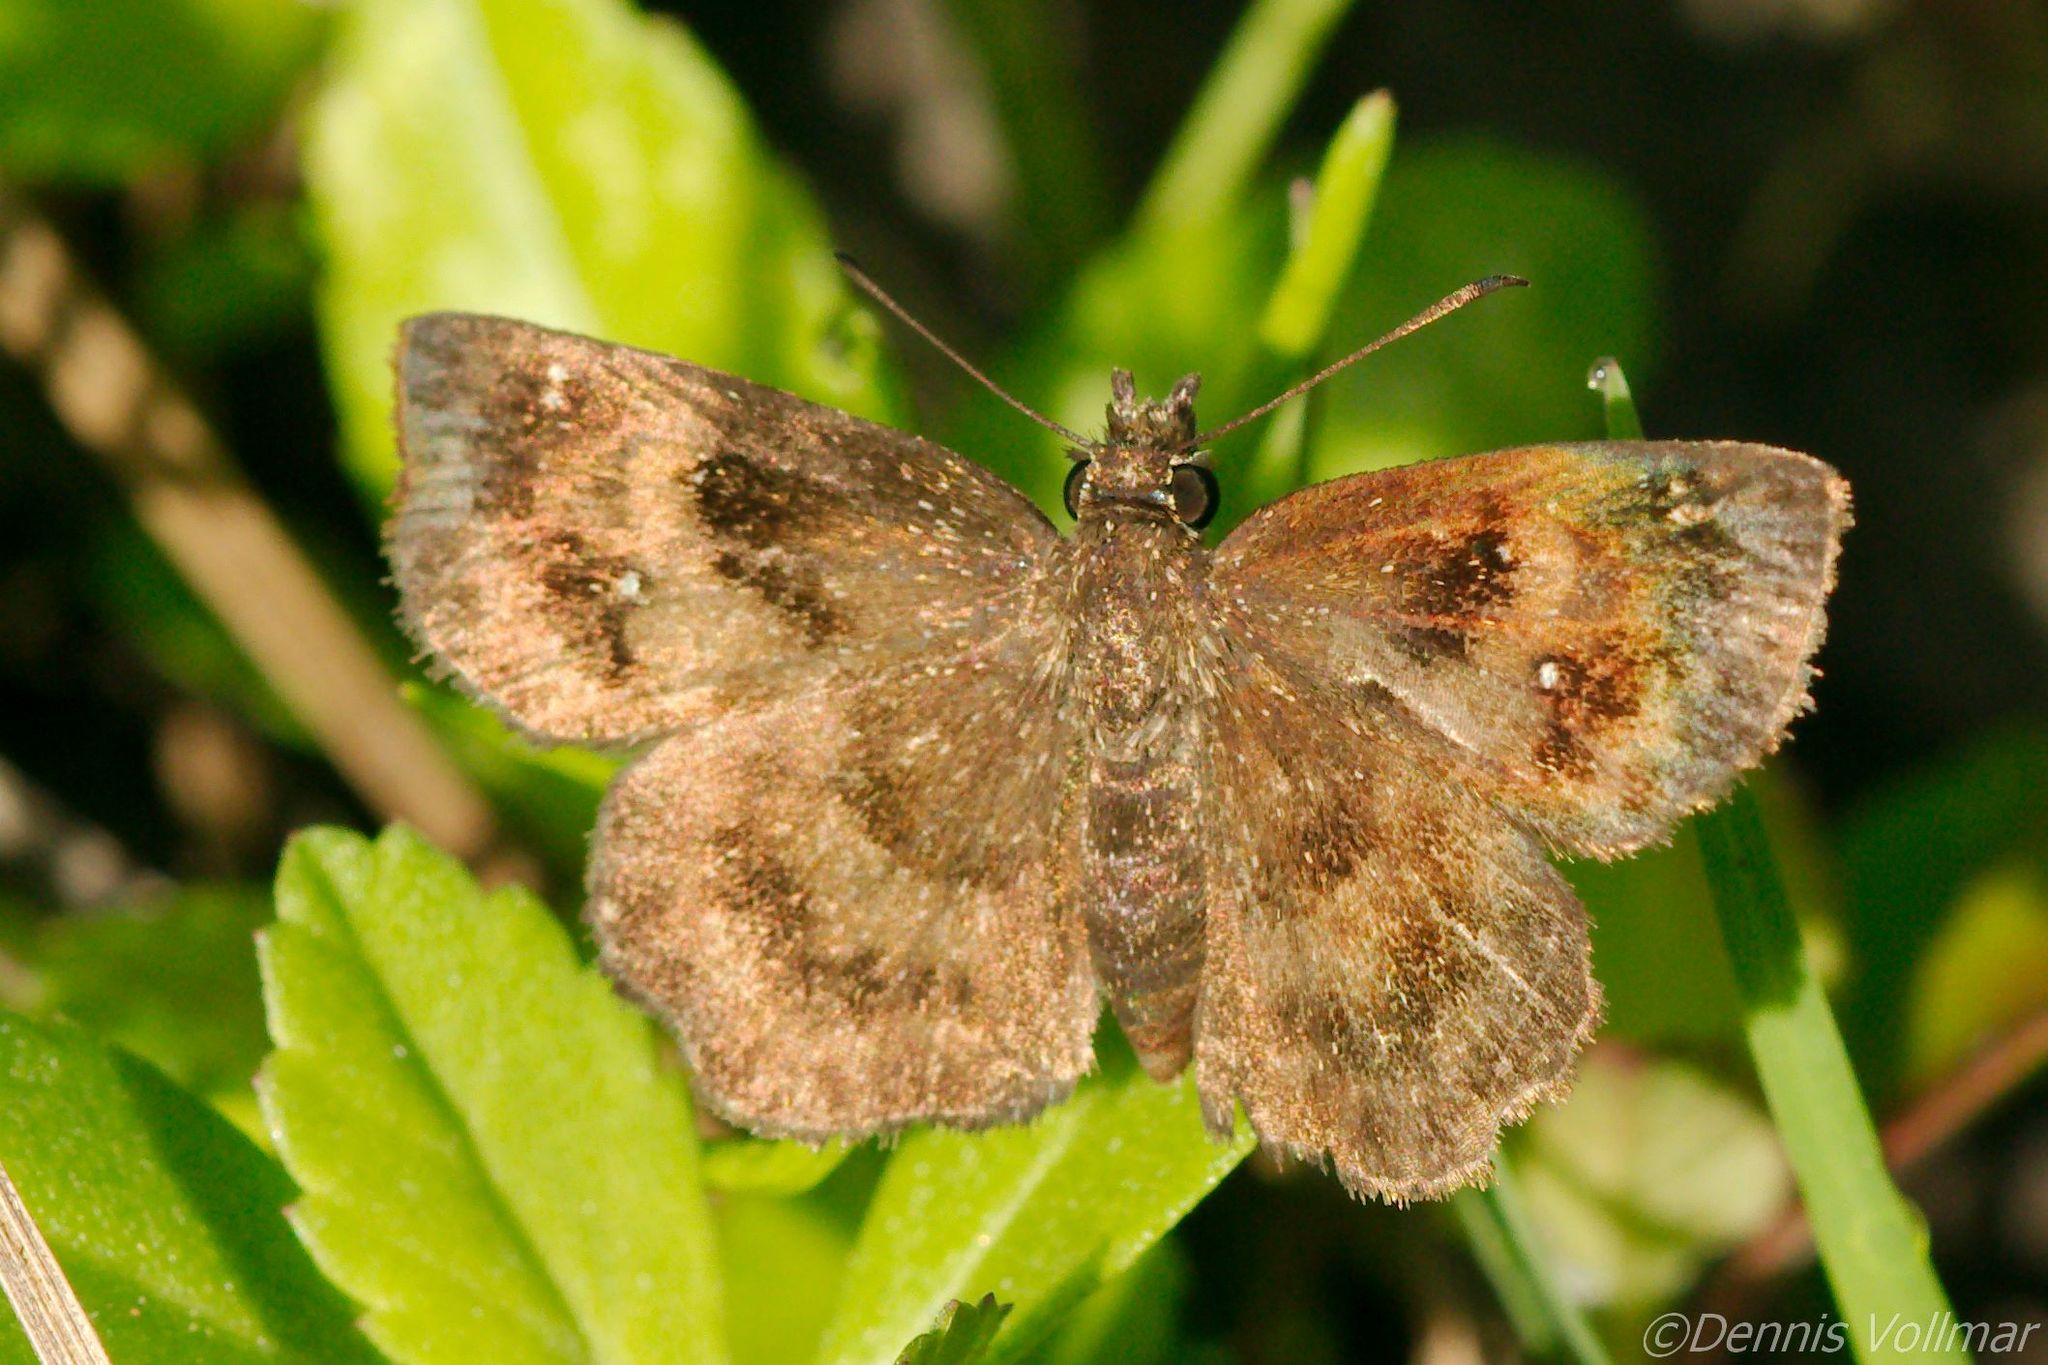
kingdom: Animalia
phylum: Arthropoda
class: Insecta
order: Lepidoptera
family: Hesperiidae
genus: Staphylus
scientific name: Staphylus mazans
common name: Mazans scallopwing
